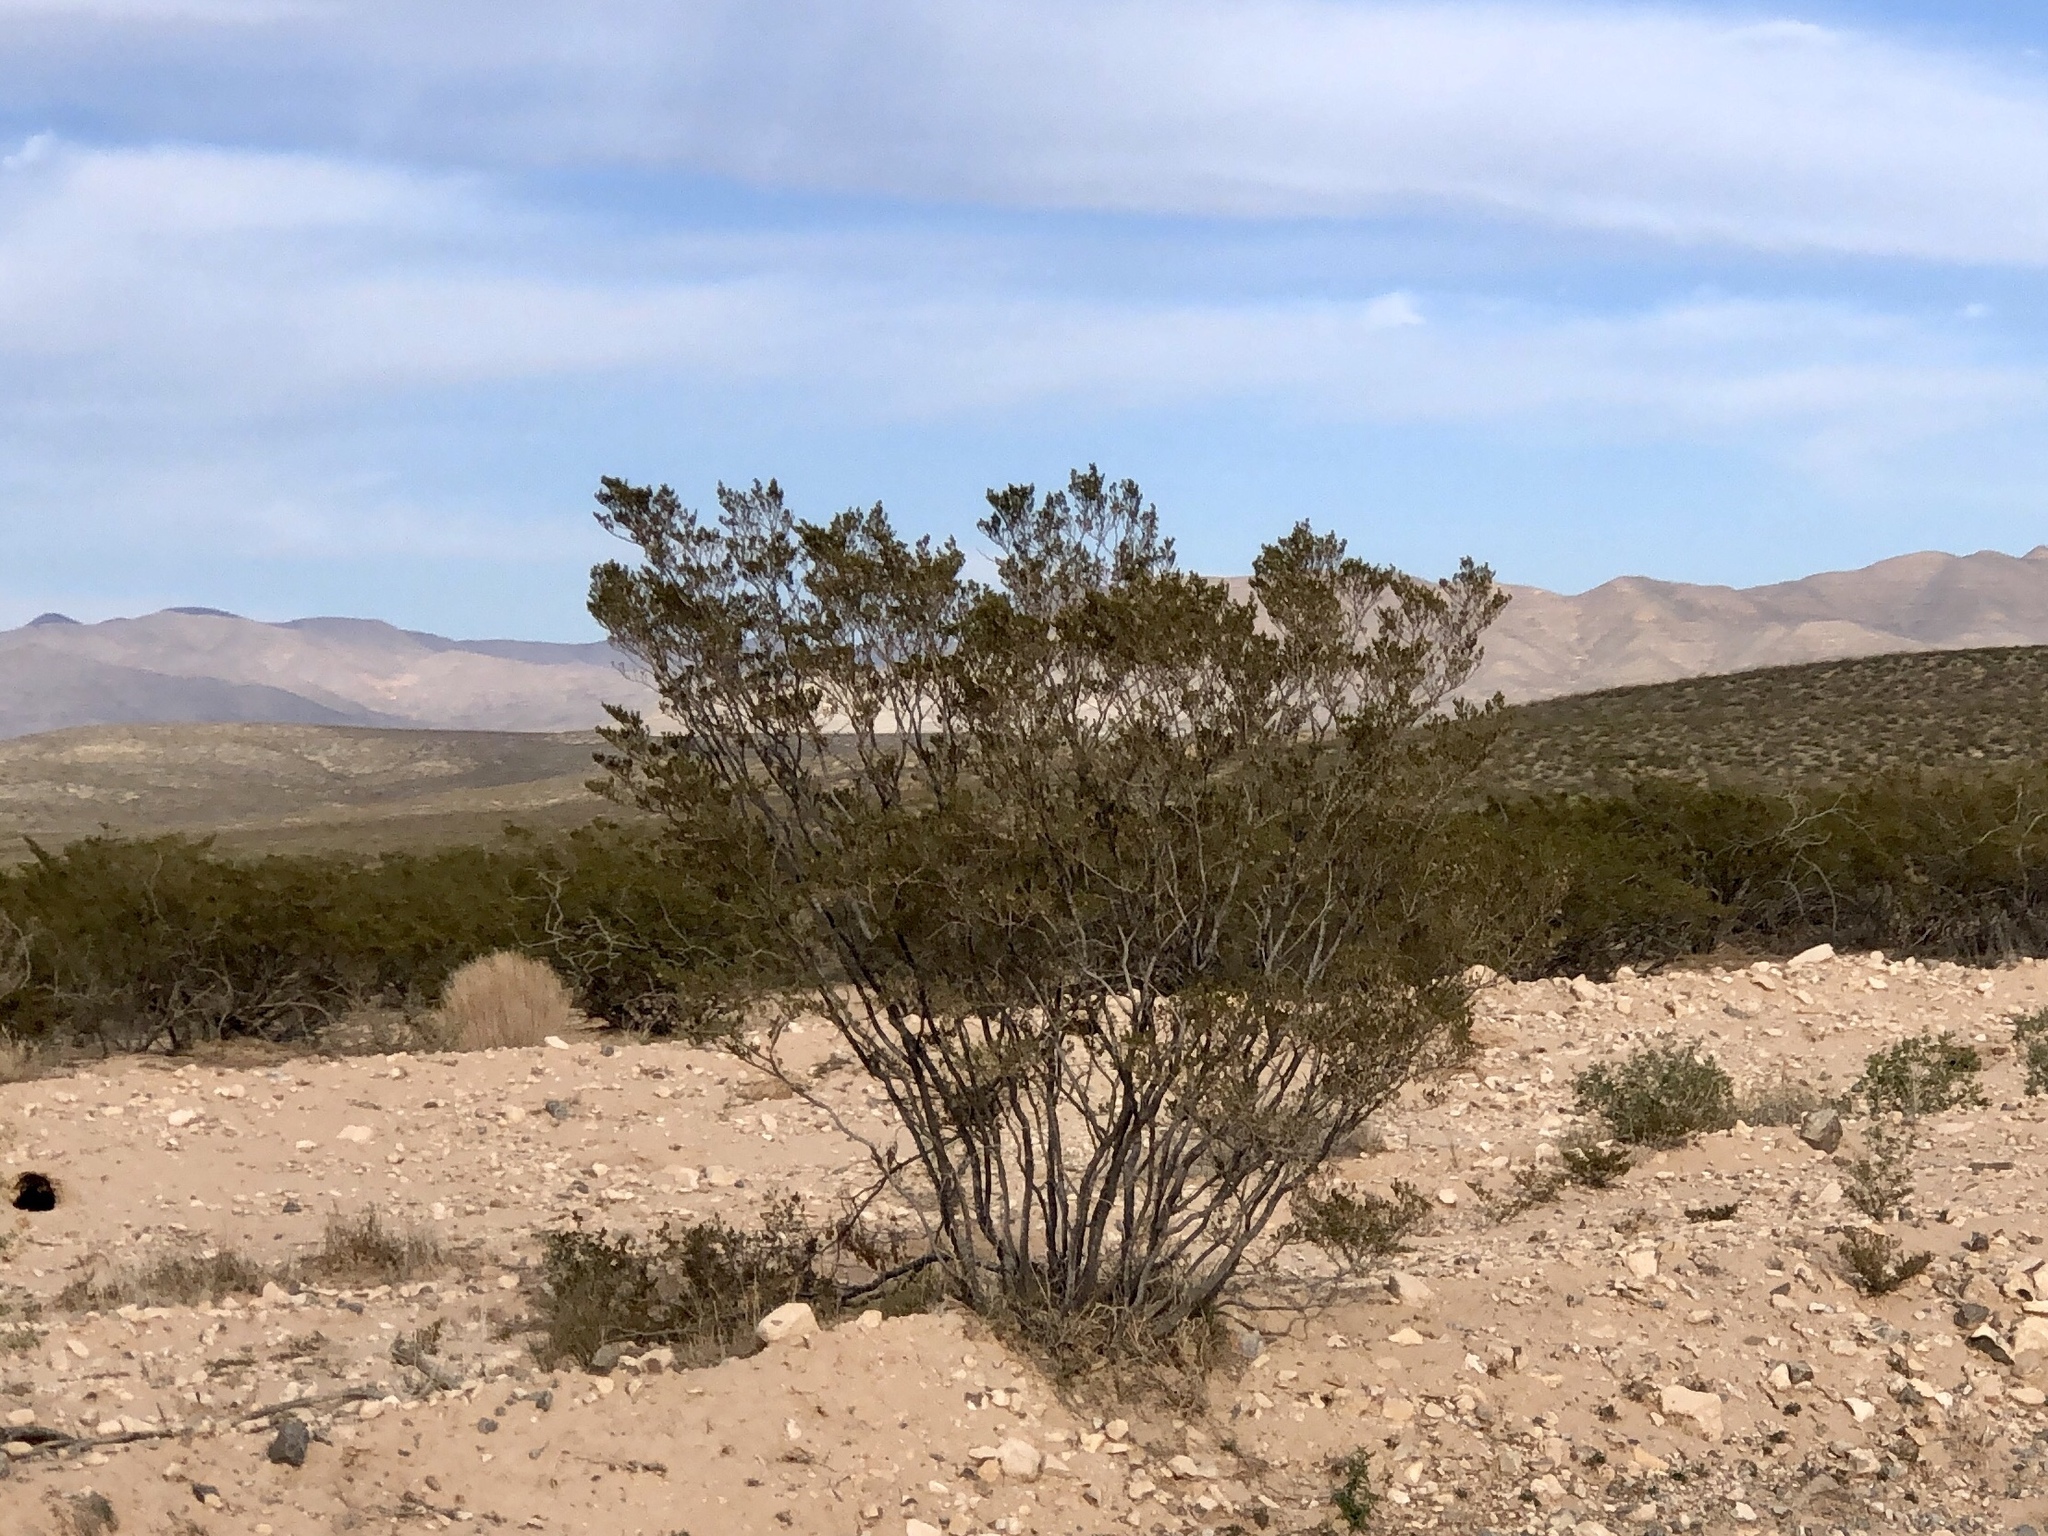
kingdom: Plantae
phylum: Tracheophyta
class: Magnoliopsida
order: Zygophyllales
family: Zygophyllaceae
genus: Larrea
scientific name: Larrea tridentata
